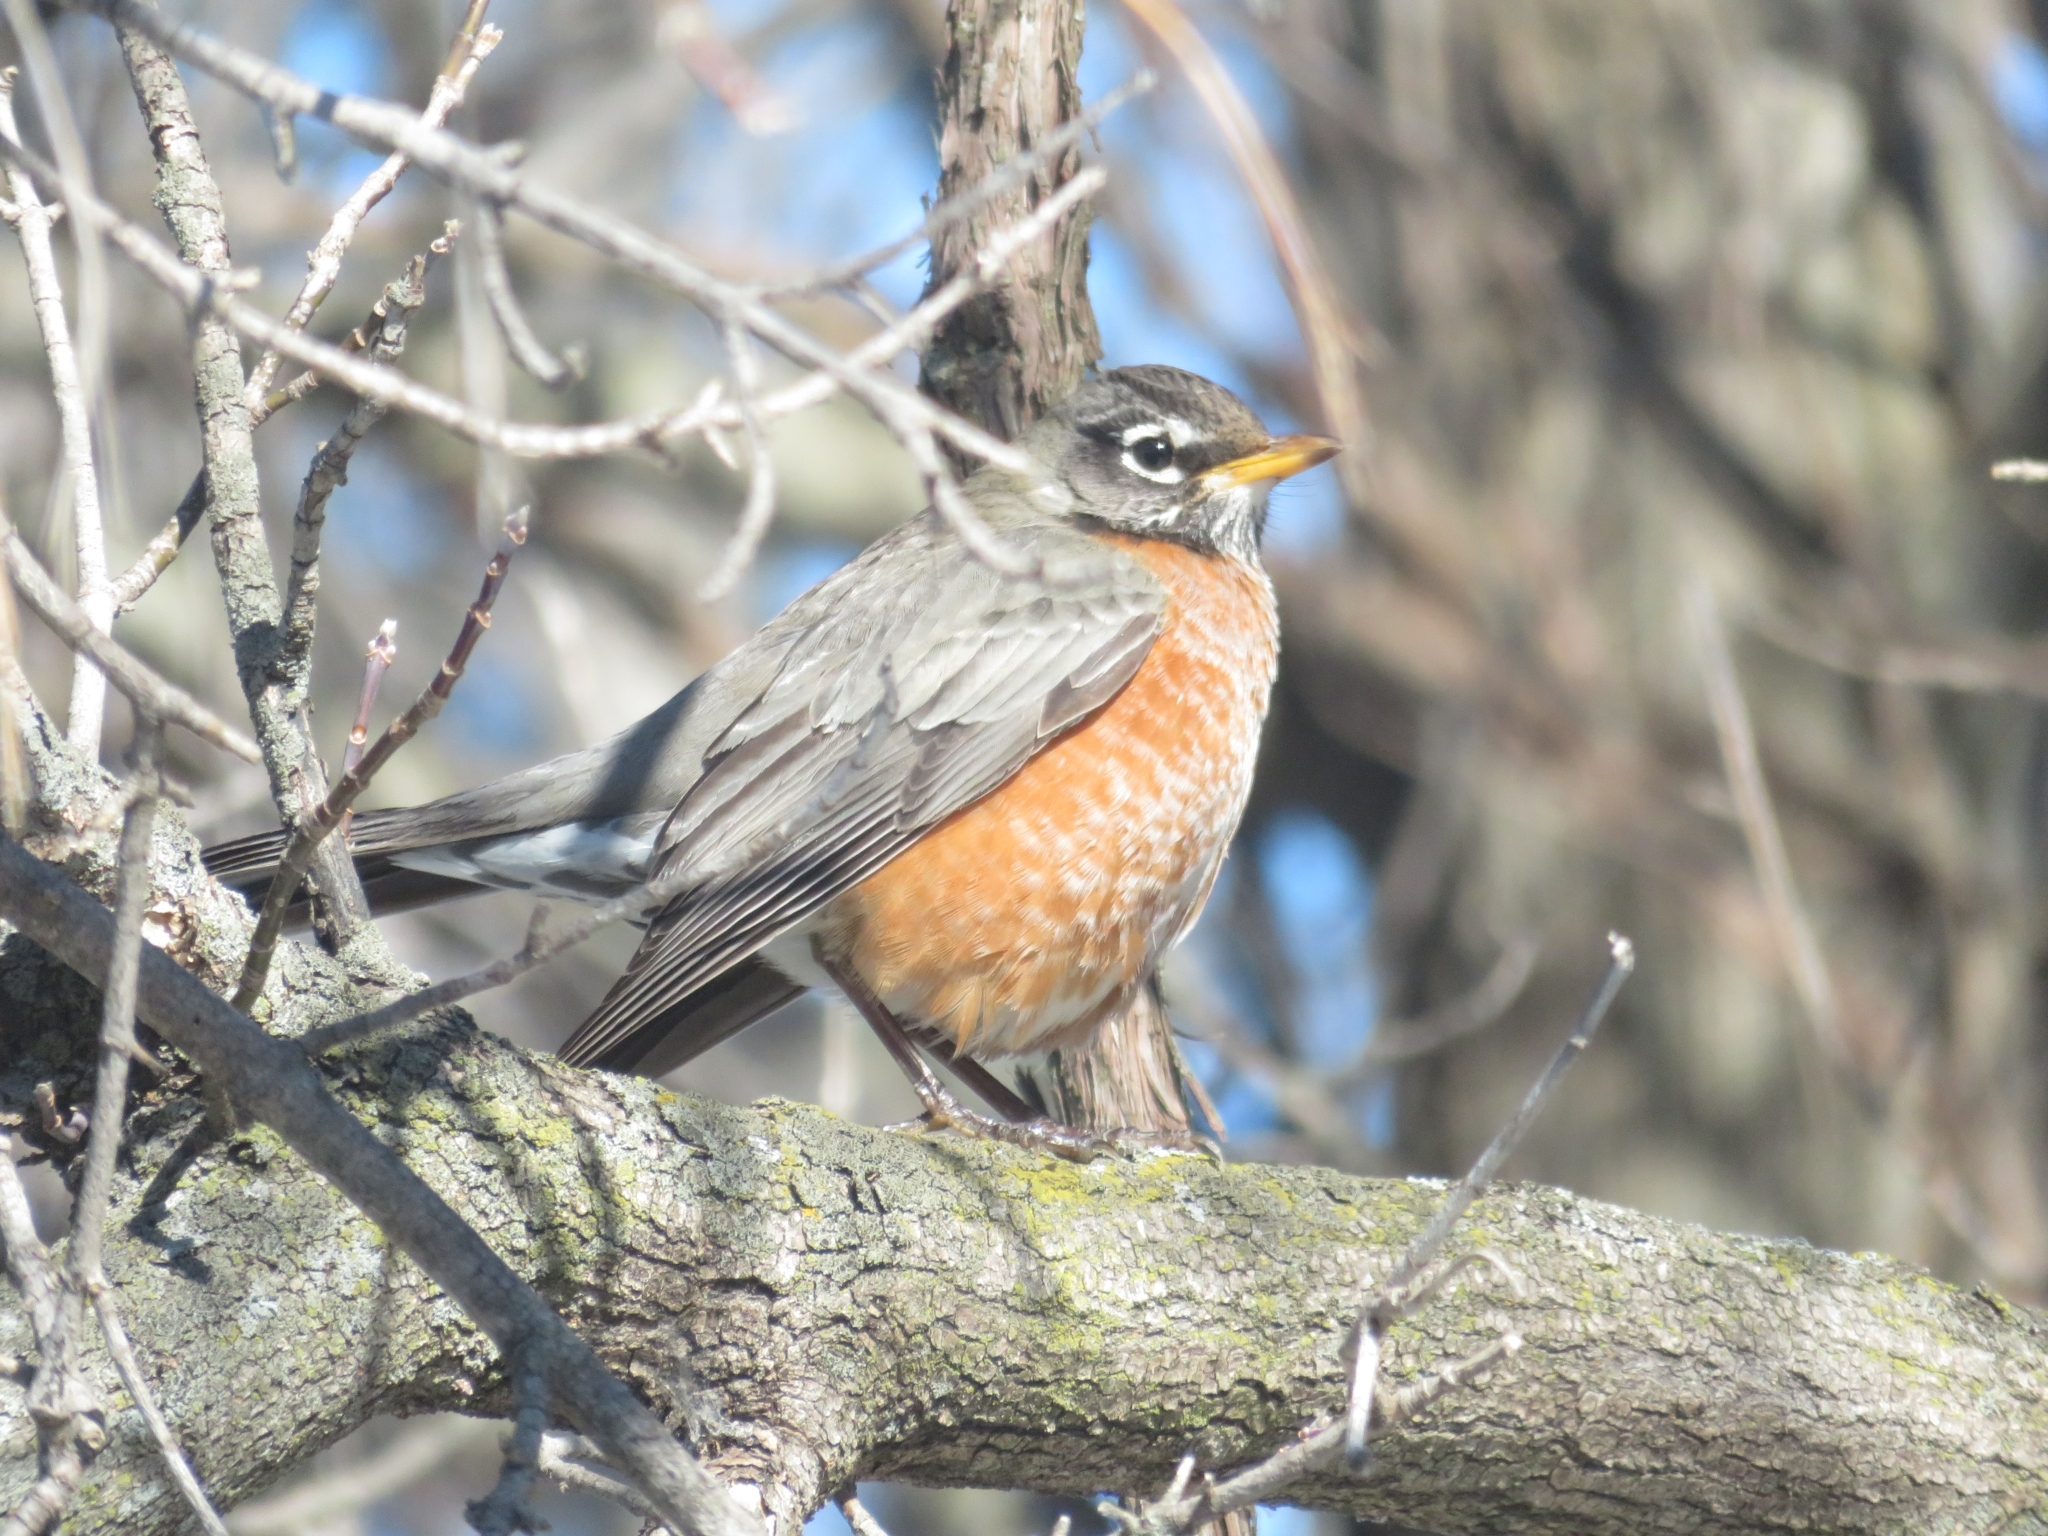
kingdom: Animalia
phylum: Chordata
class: Aves
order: Passeriformes
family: Turdidae
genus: Turdus
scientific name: Turdus migratorius
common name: American robin
